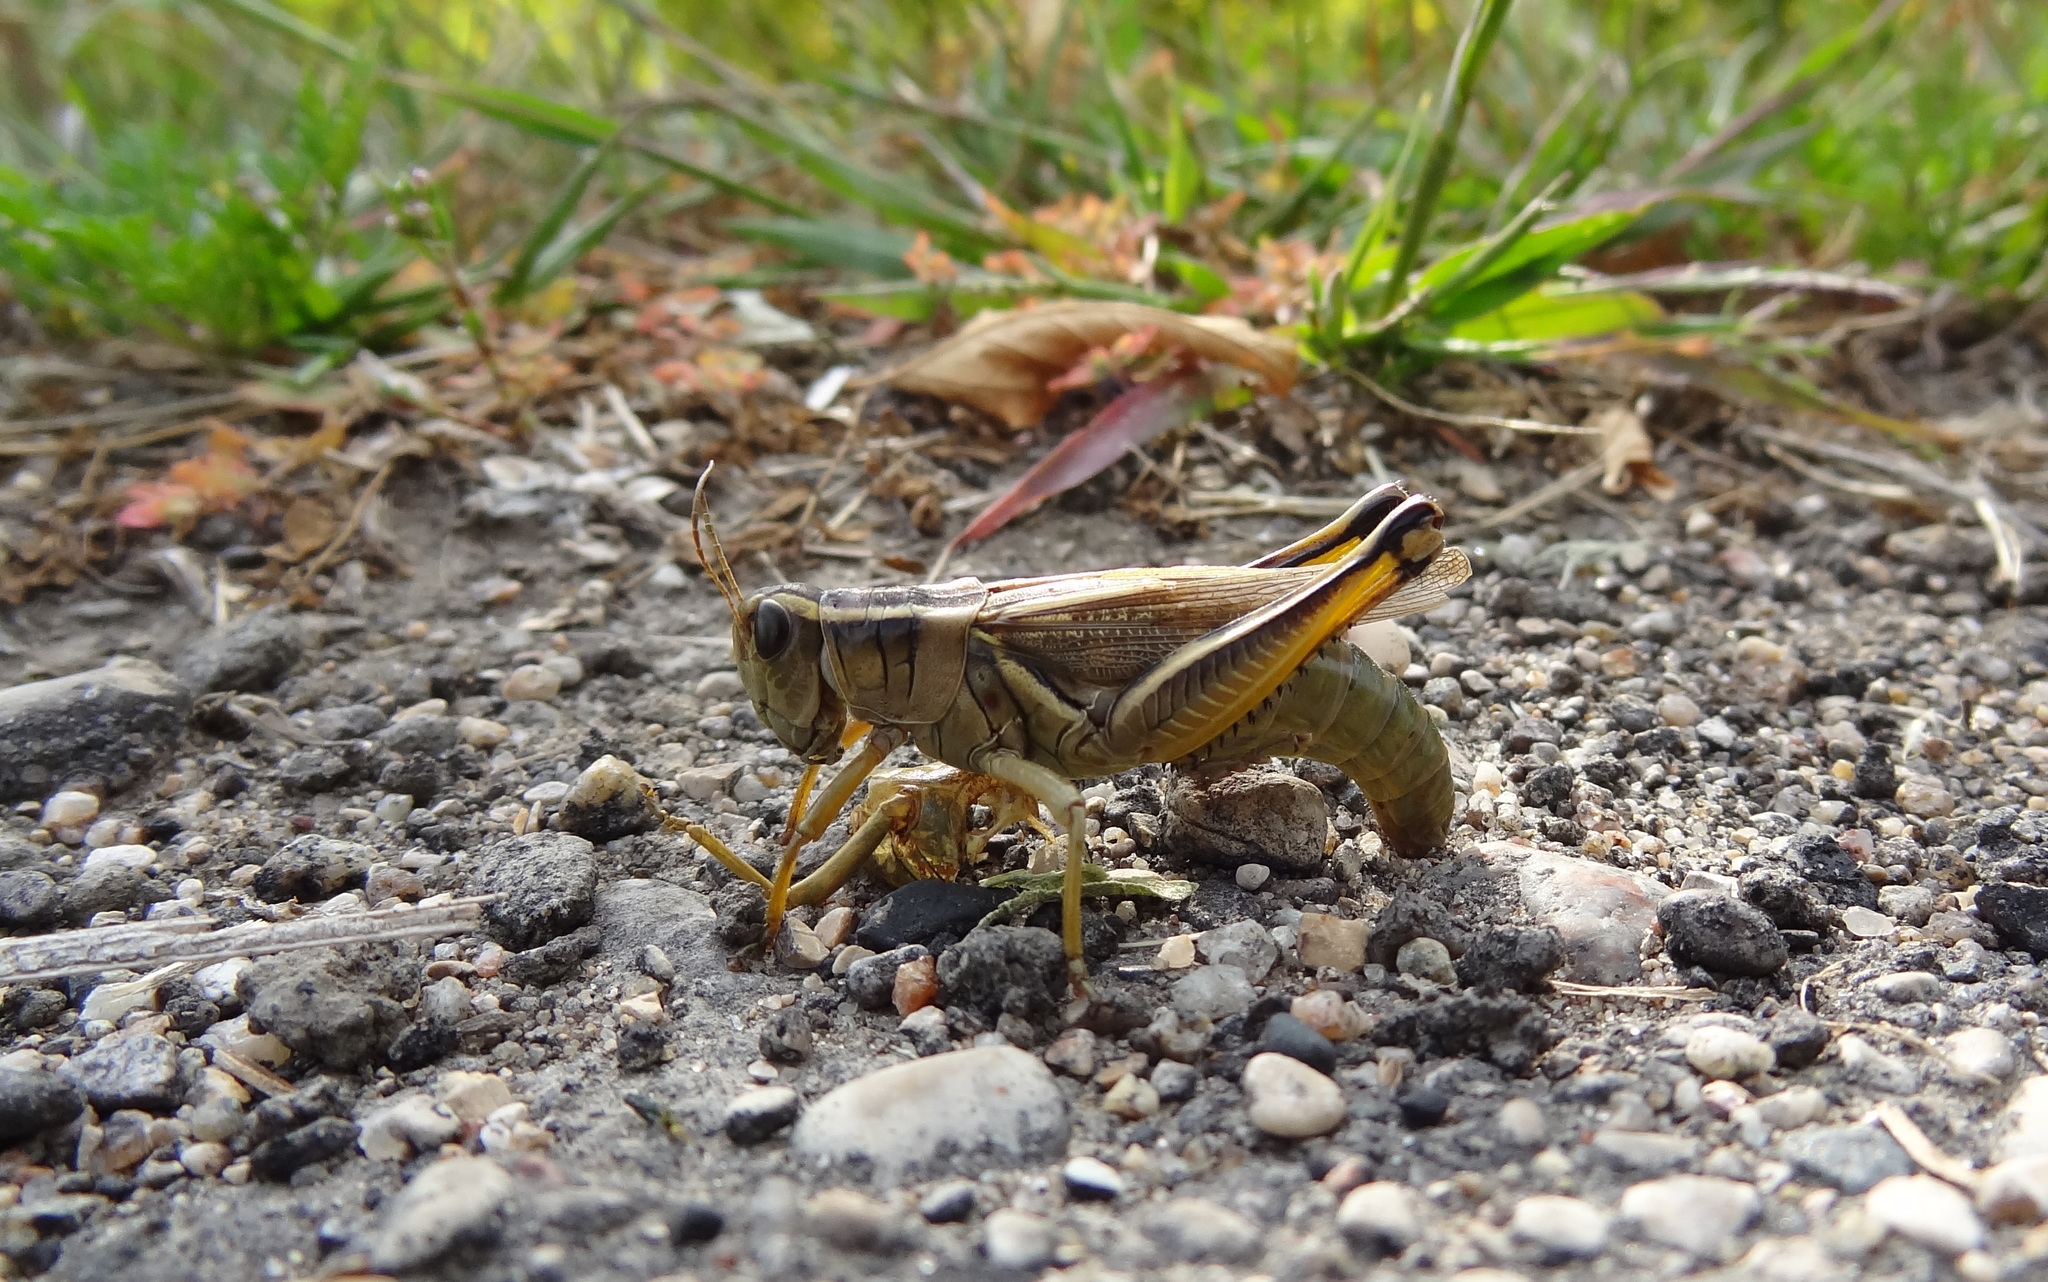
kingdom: Animalia
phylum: Arthropoda
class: Insecta
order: Orthoptera
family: Acrididae
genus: Melanoplus
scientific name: Melanoplus bivittatus
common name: Two-striped grasshopper
